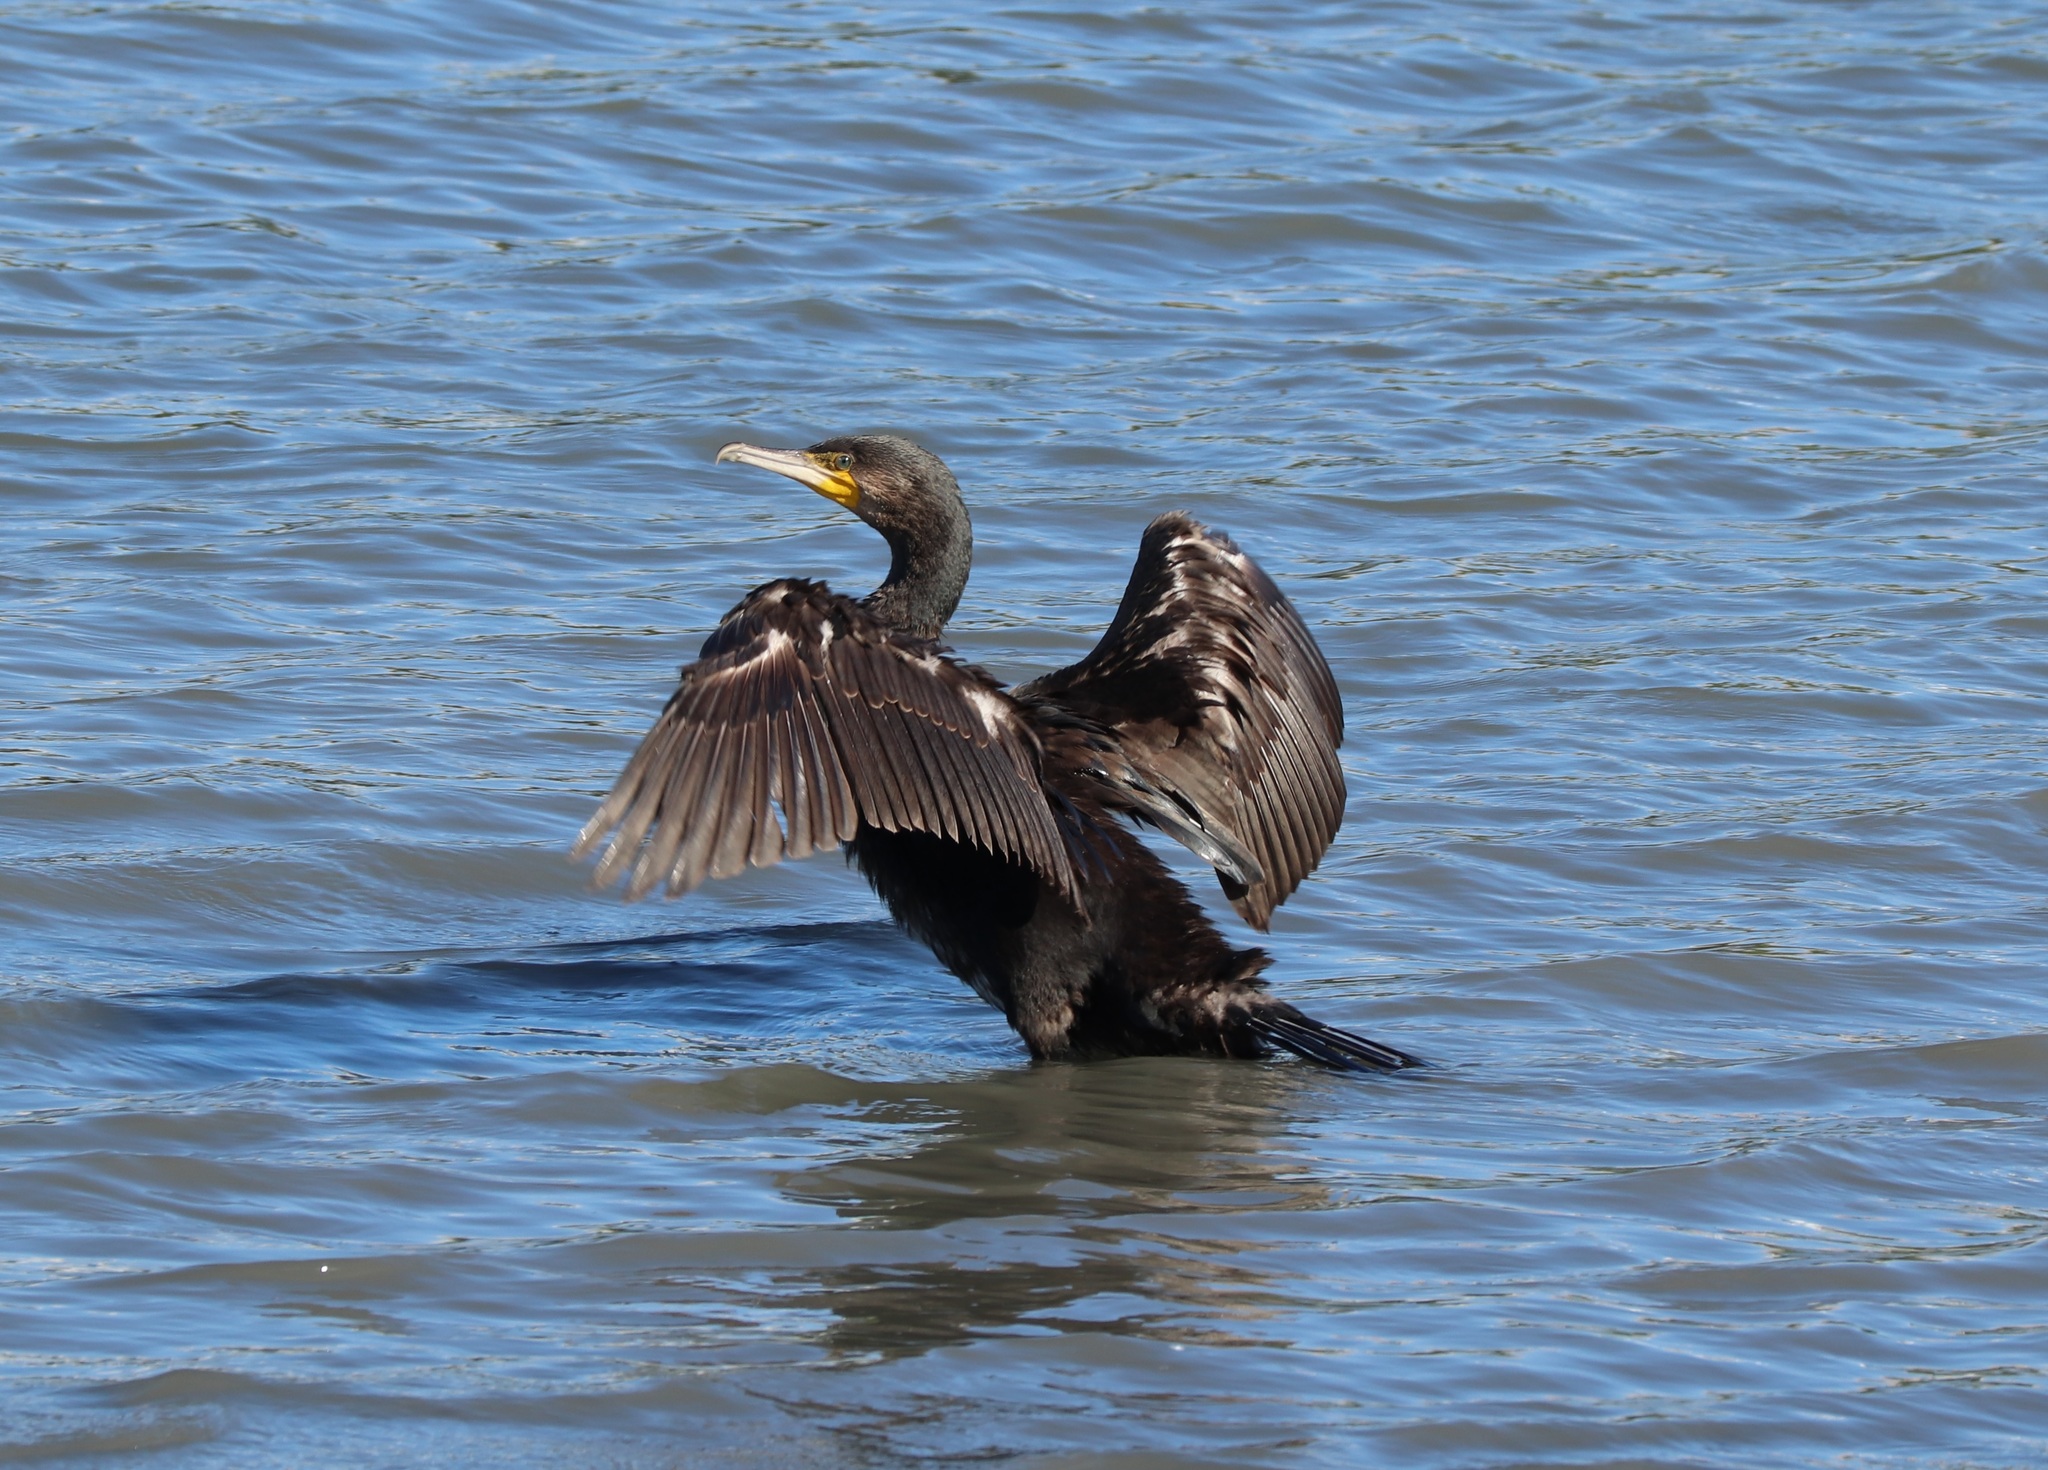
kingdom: Animalia
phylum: Chordata
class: Aves
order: Suliformes
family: Phalacrocoracidae
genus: Phalacrocorax
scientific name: Phalacrocorax carbo
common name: Great cormorant
